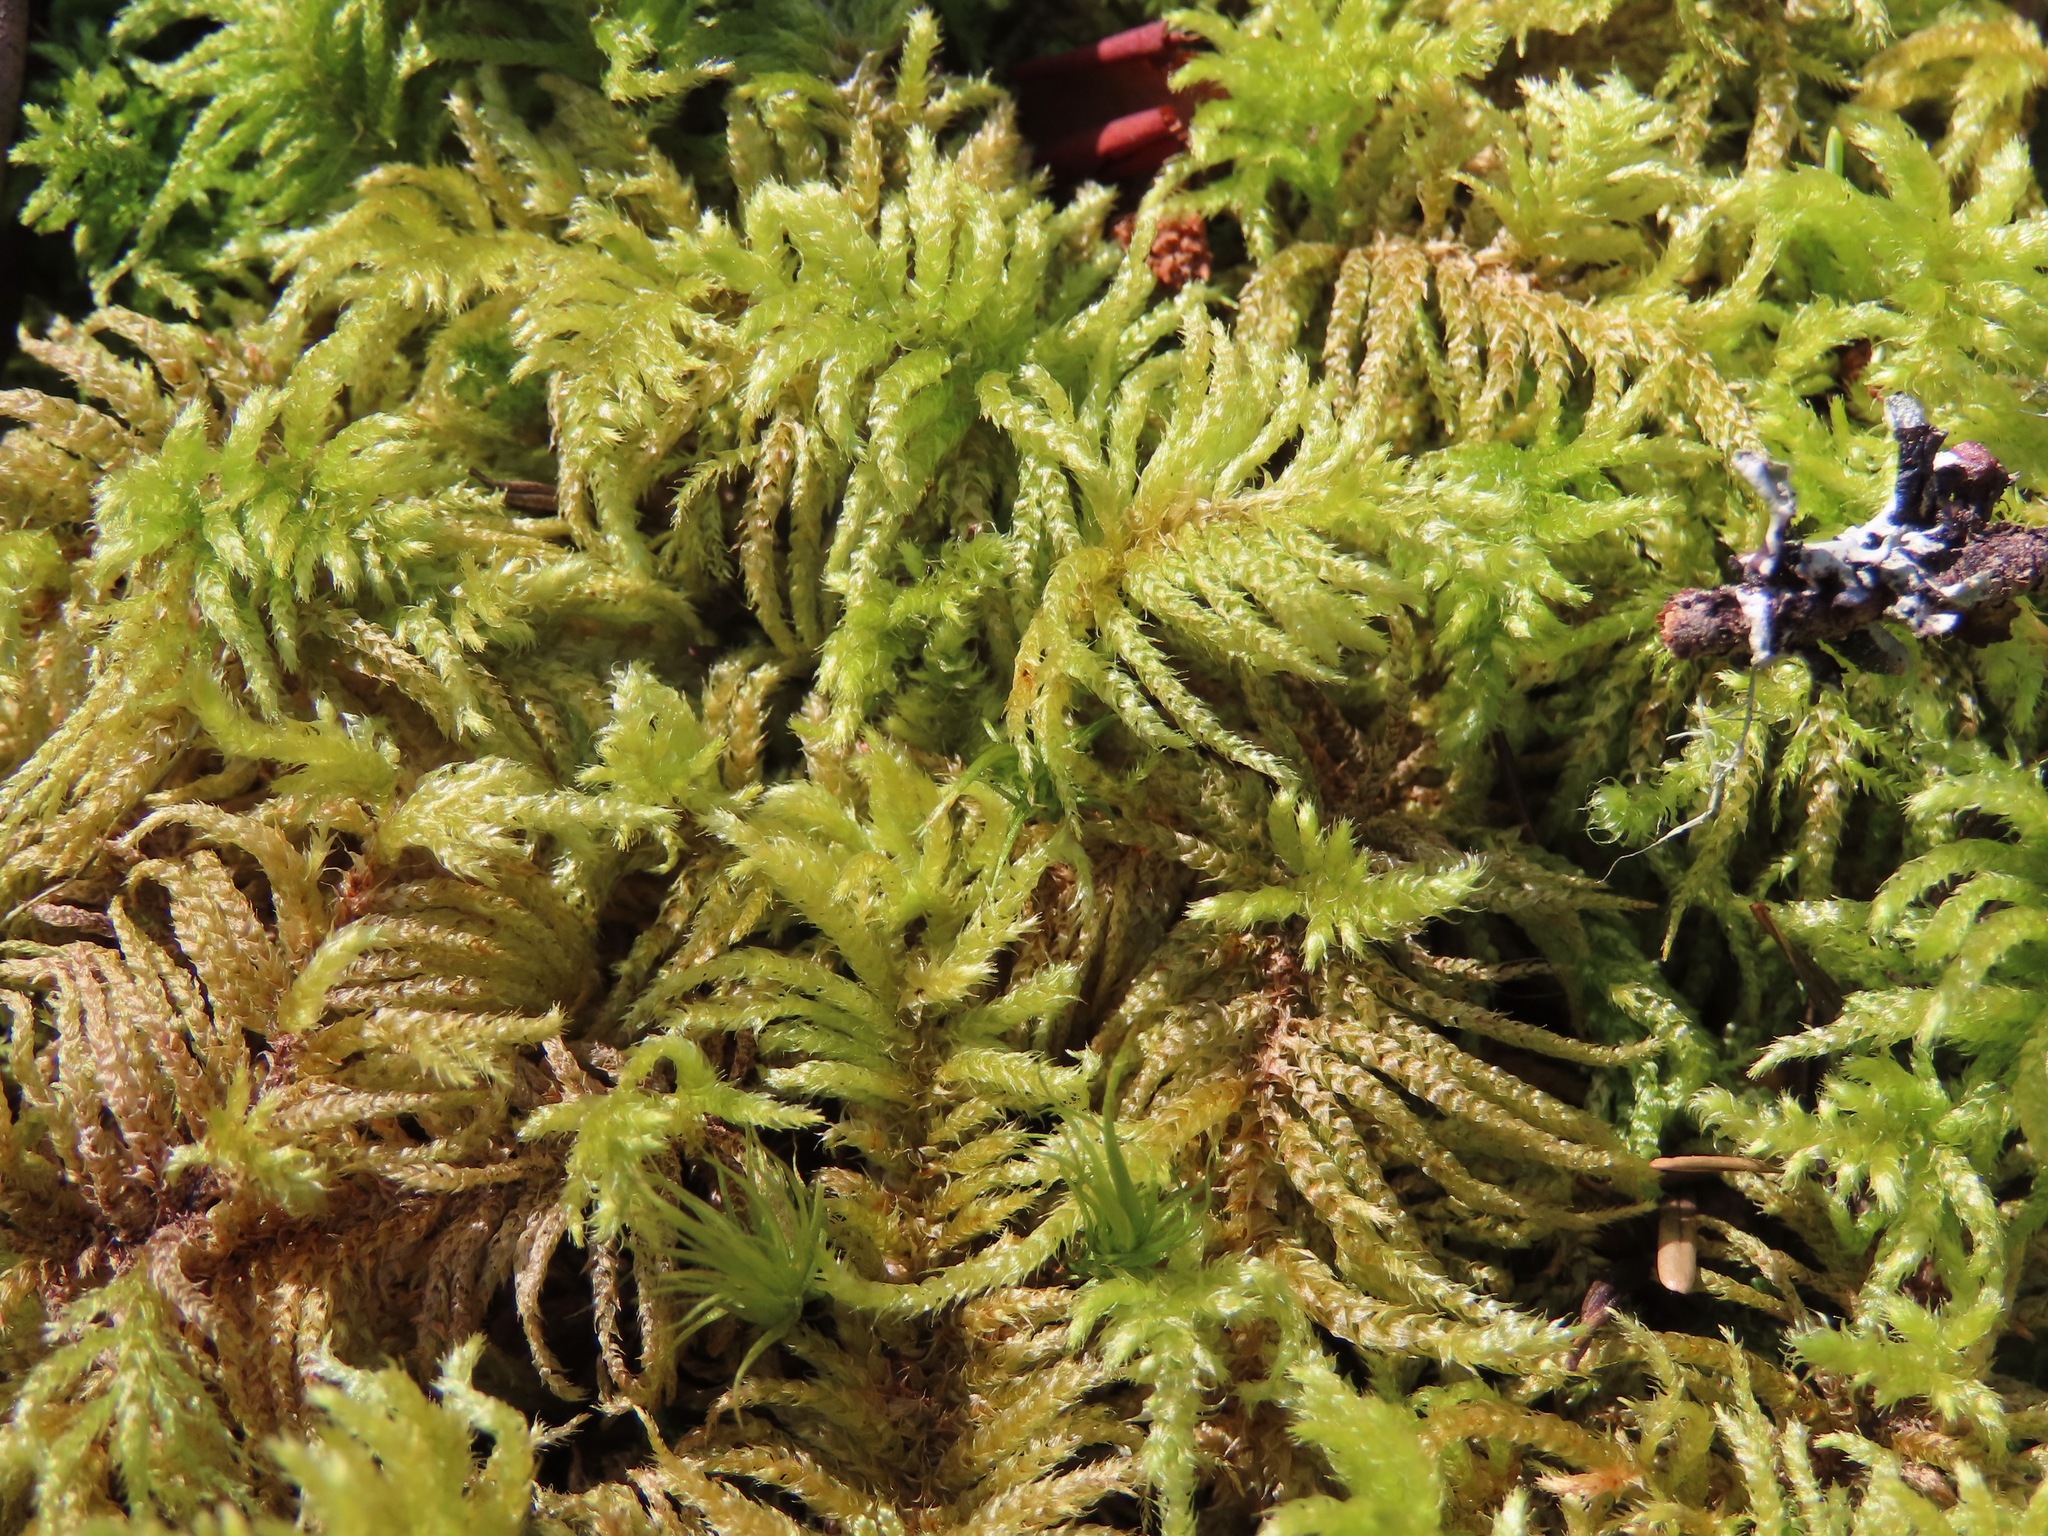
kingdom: Plantae
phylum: Bryophyta
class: Bryopsida
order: Hypnales
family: Brachytheciaceae
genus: Kindbergia
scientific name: Kindbergia oregana
